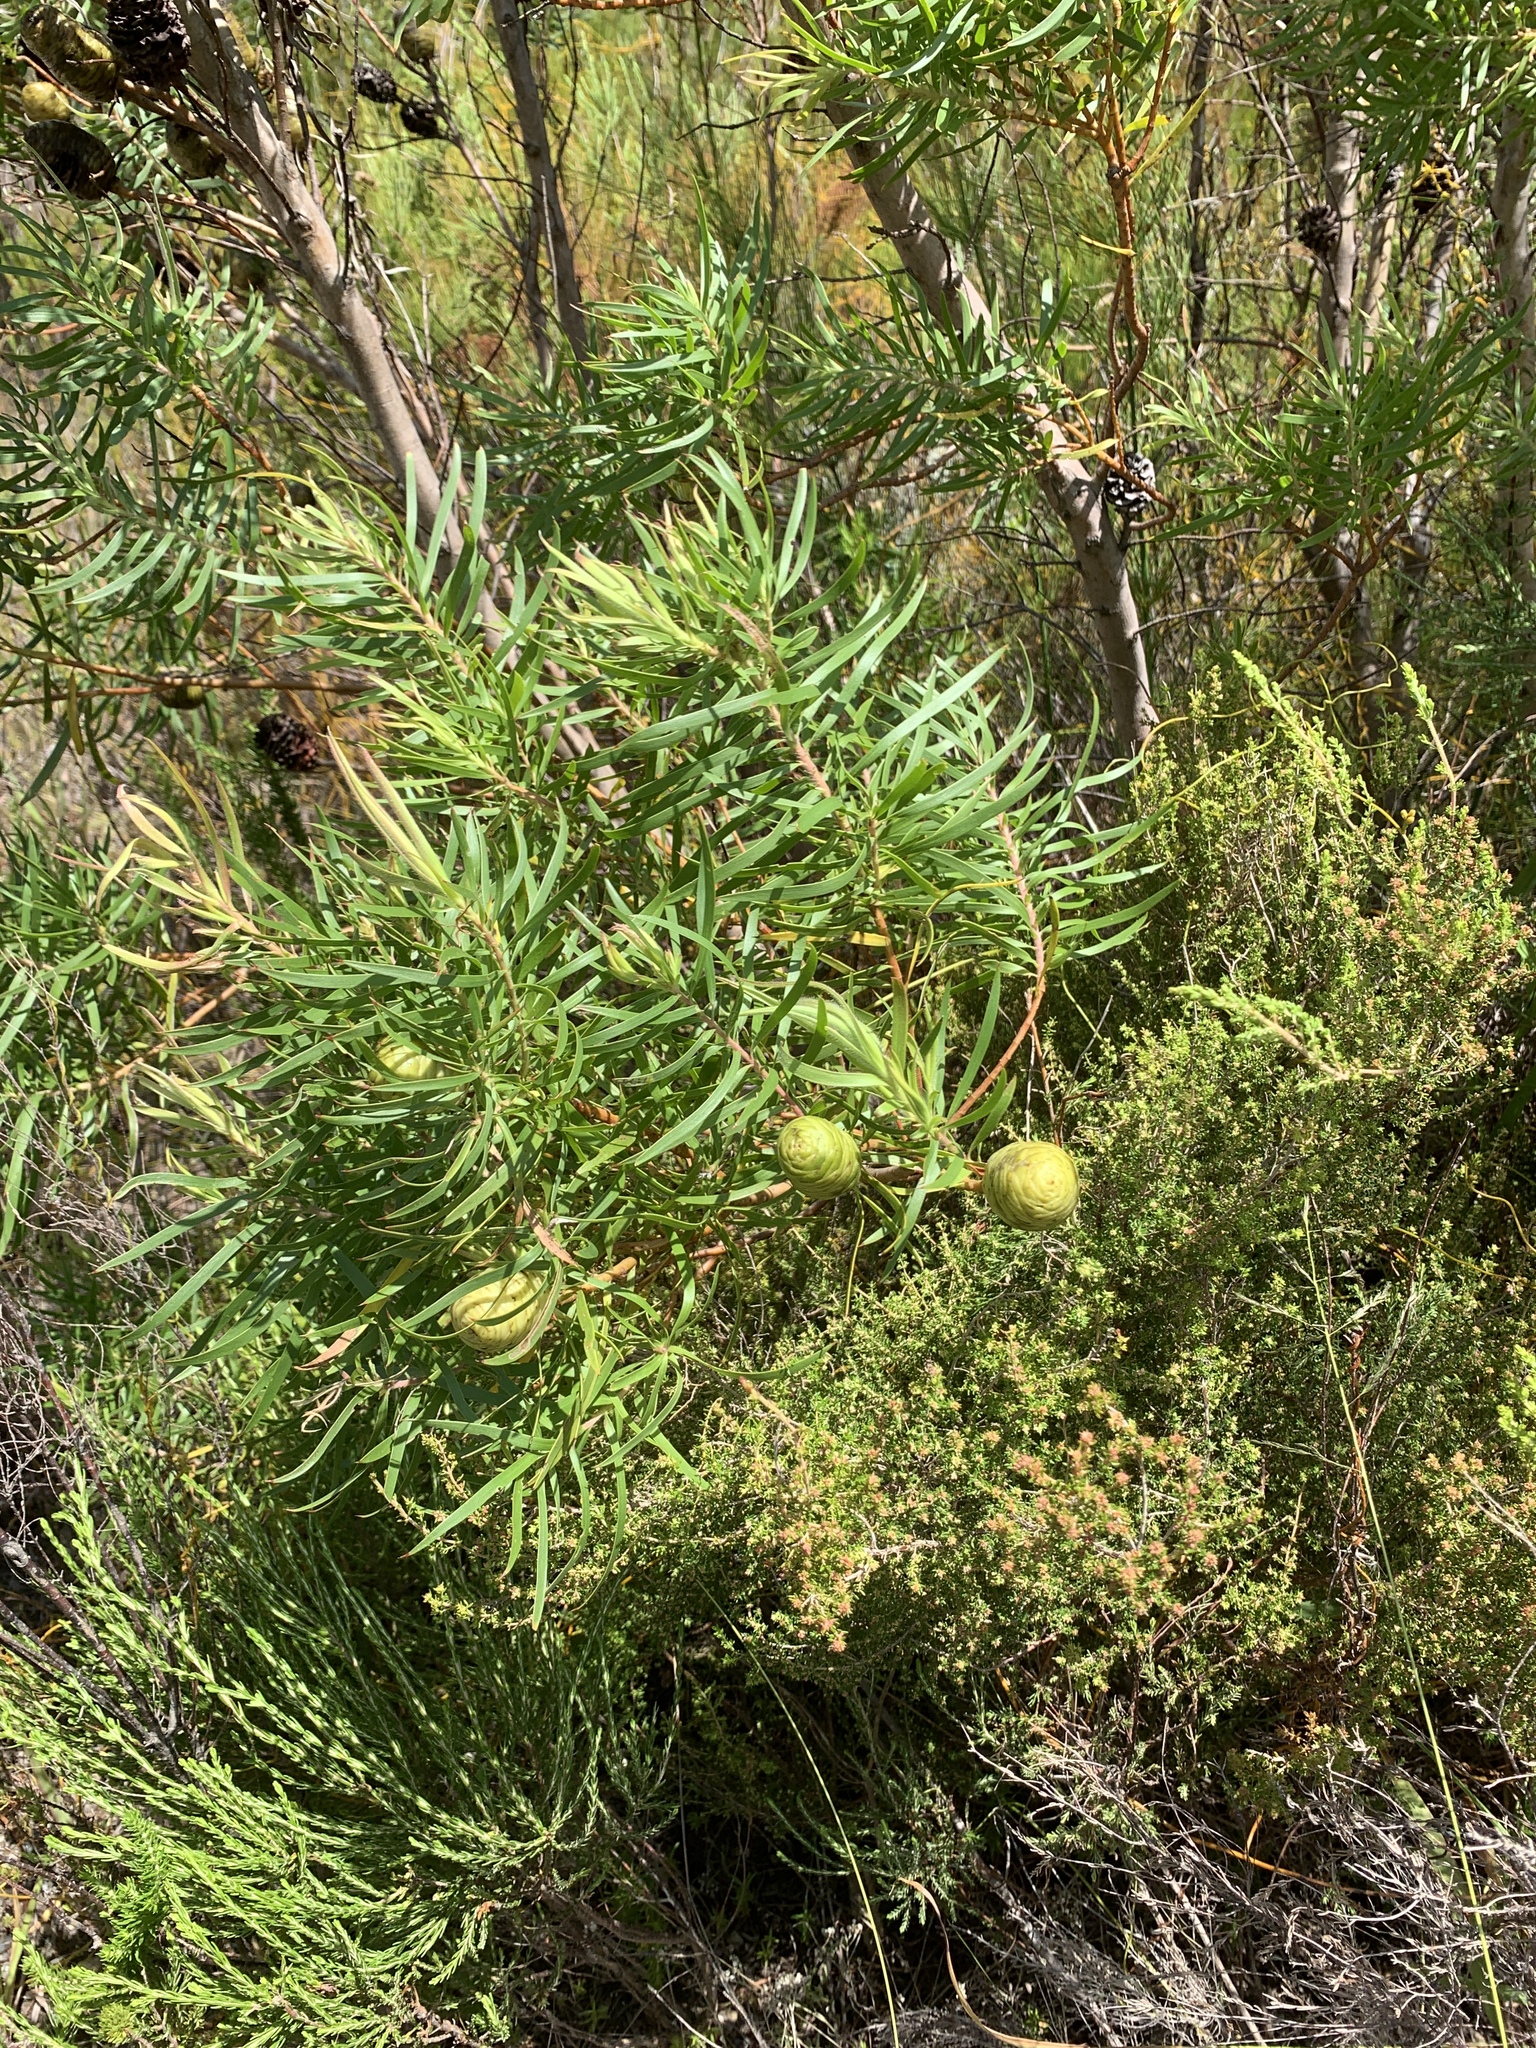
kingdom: Plantae
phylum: Tracheophyta
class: Magnoliopsida
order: Proteales
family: Proteaceae
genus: Leucadendron
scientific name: Leucadendron salicifolium
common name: Common stream conebush
